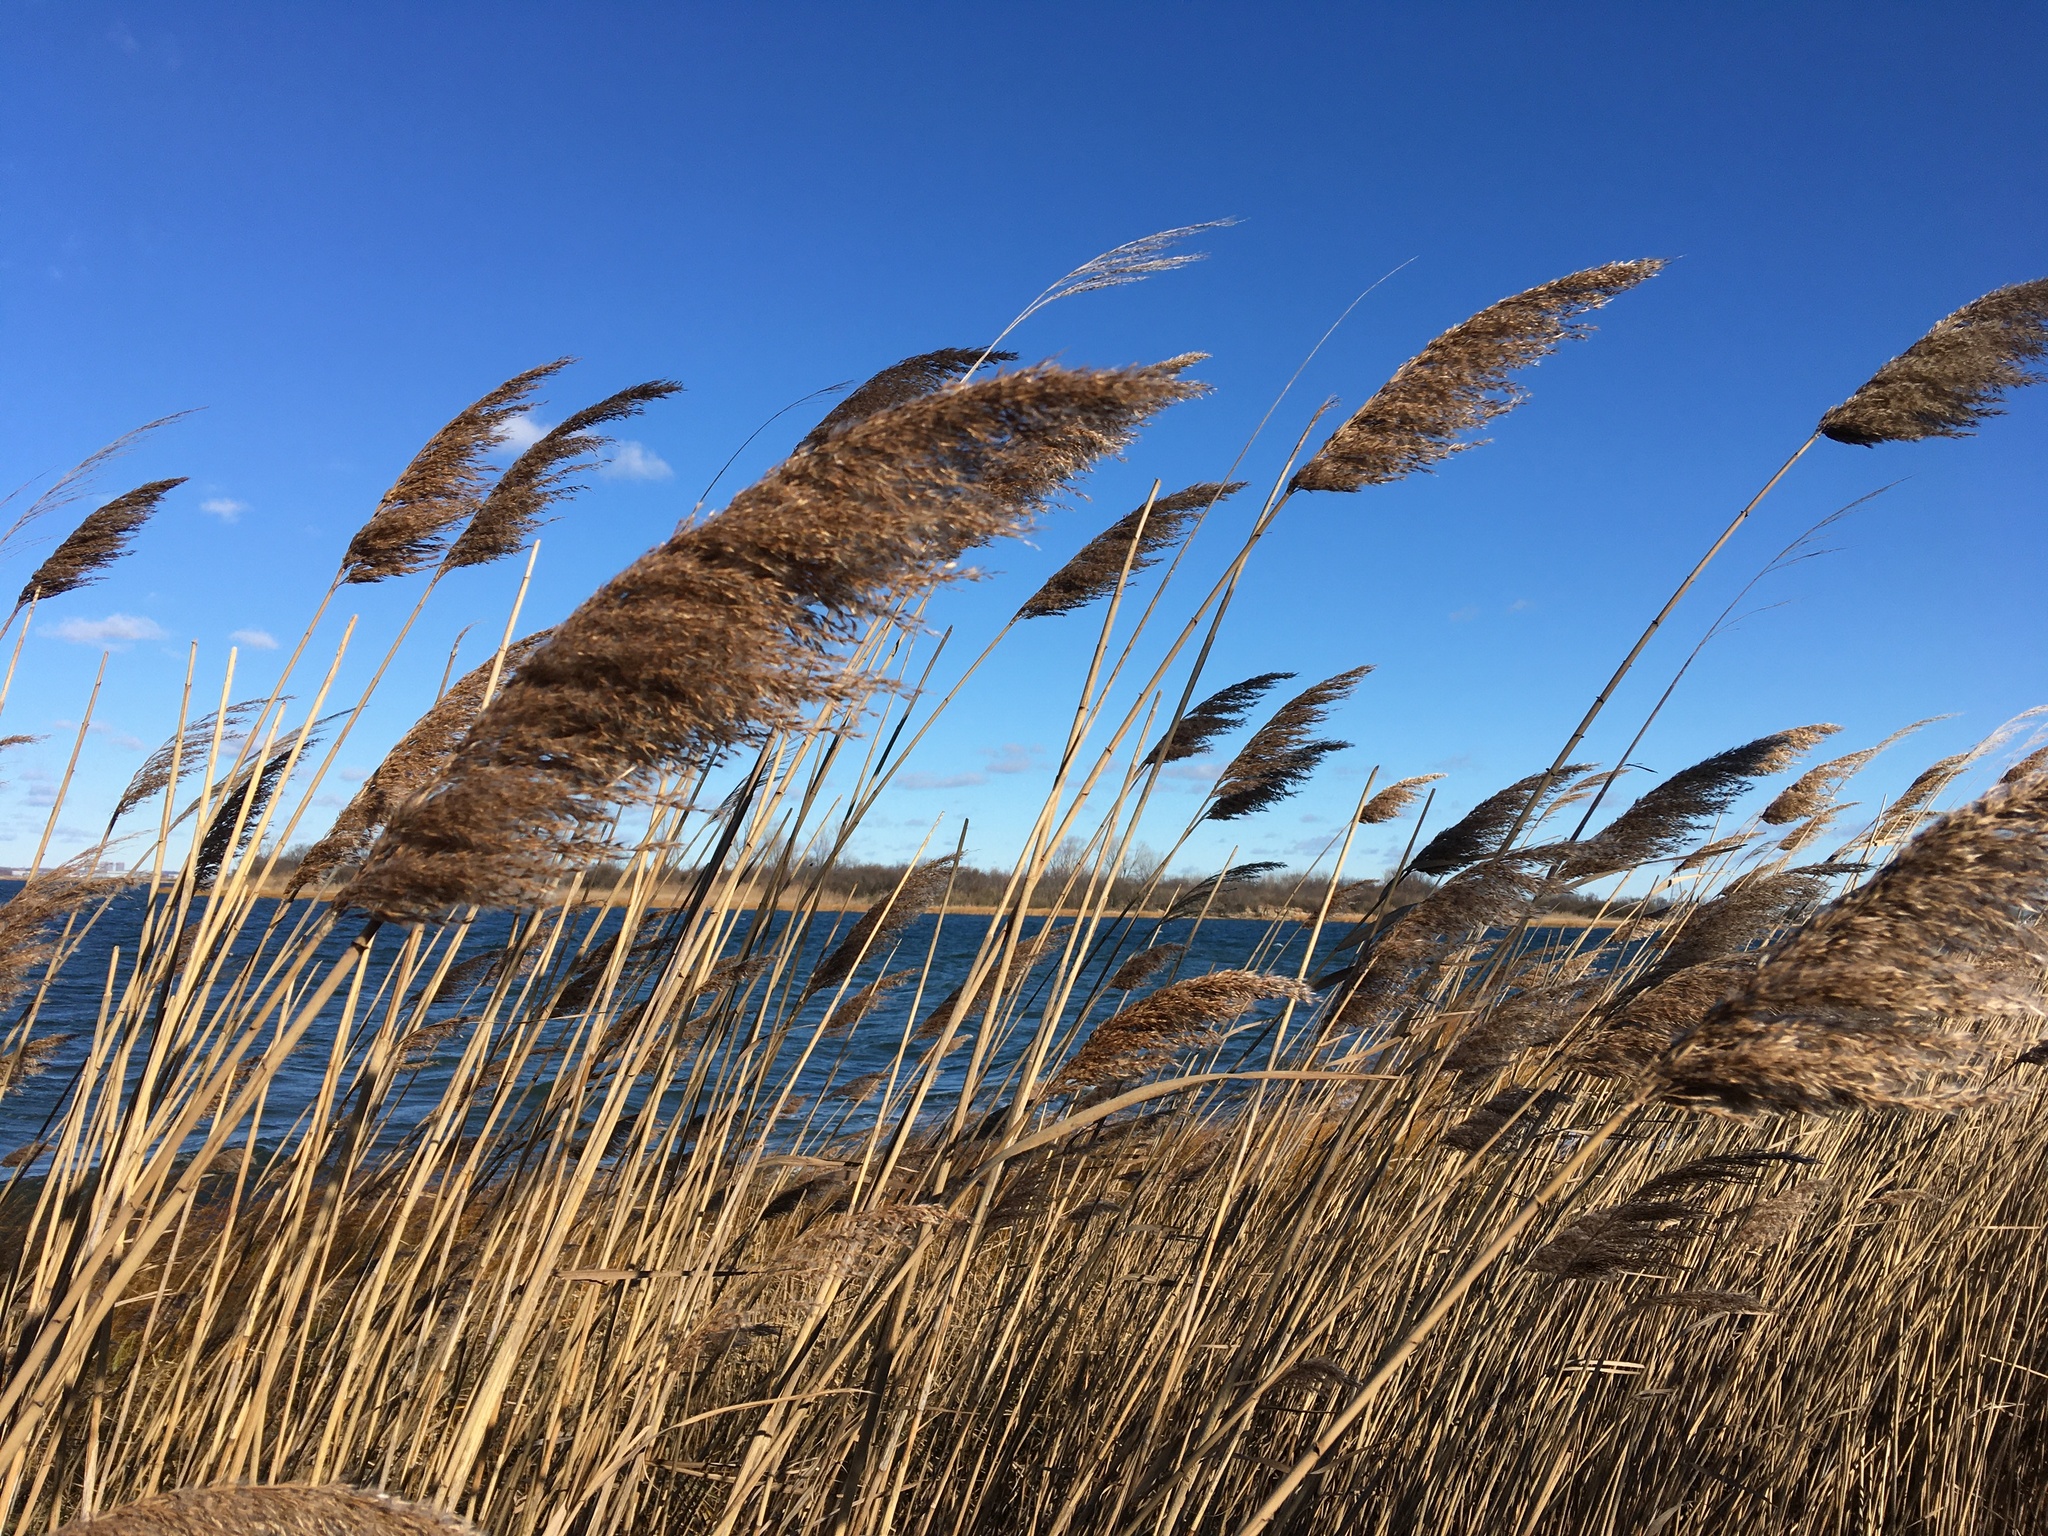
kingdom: Plantae
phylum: Tracheophyta
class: Liliopsida
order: Poales
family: Poaceae
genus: Phragmites
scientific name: Phragmites australis
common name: Common reed
